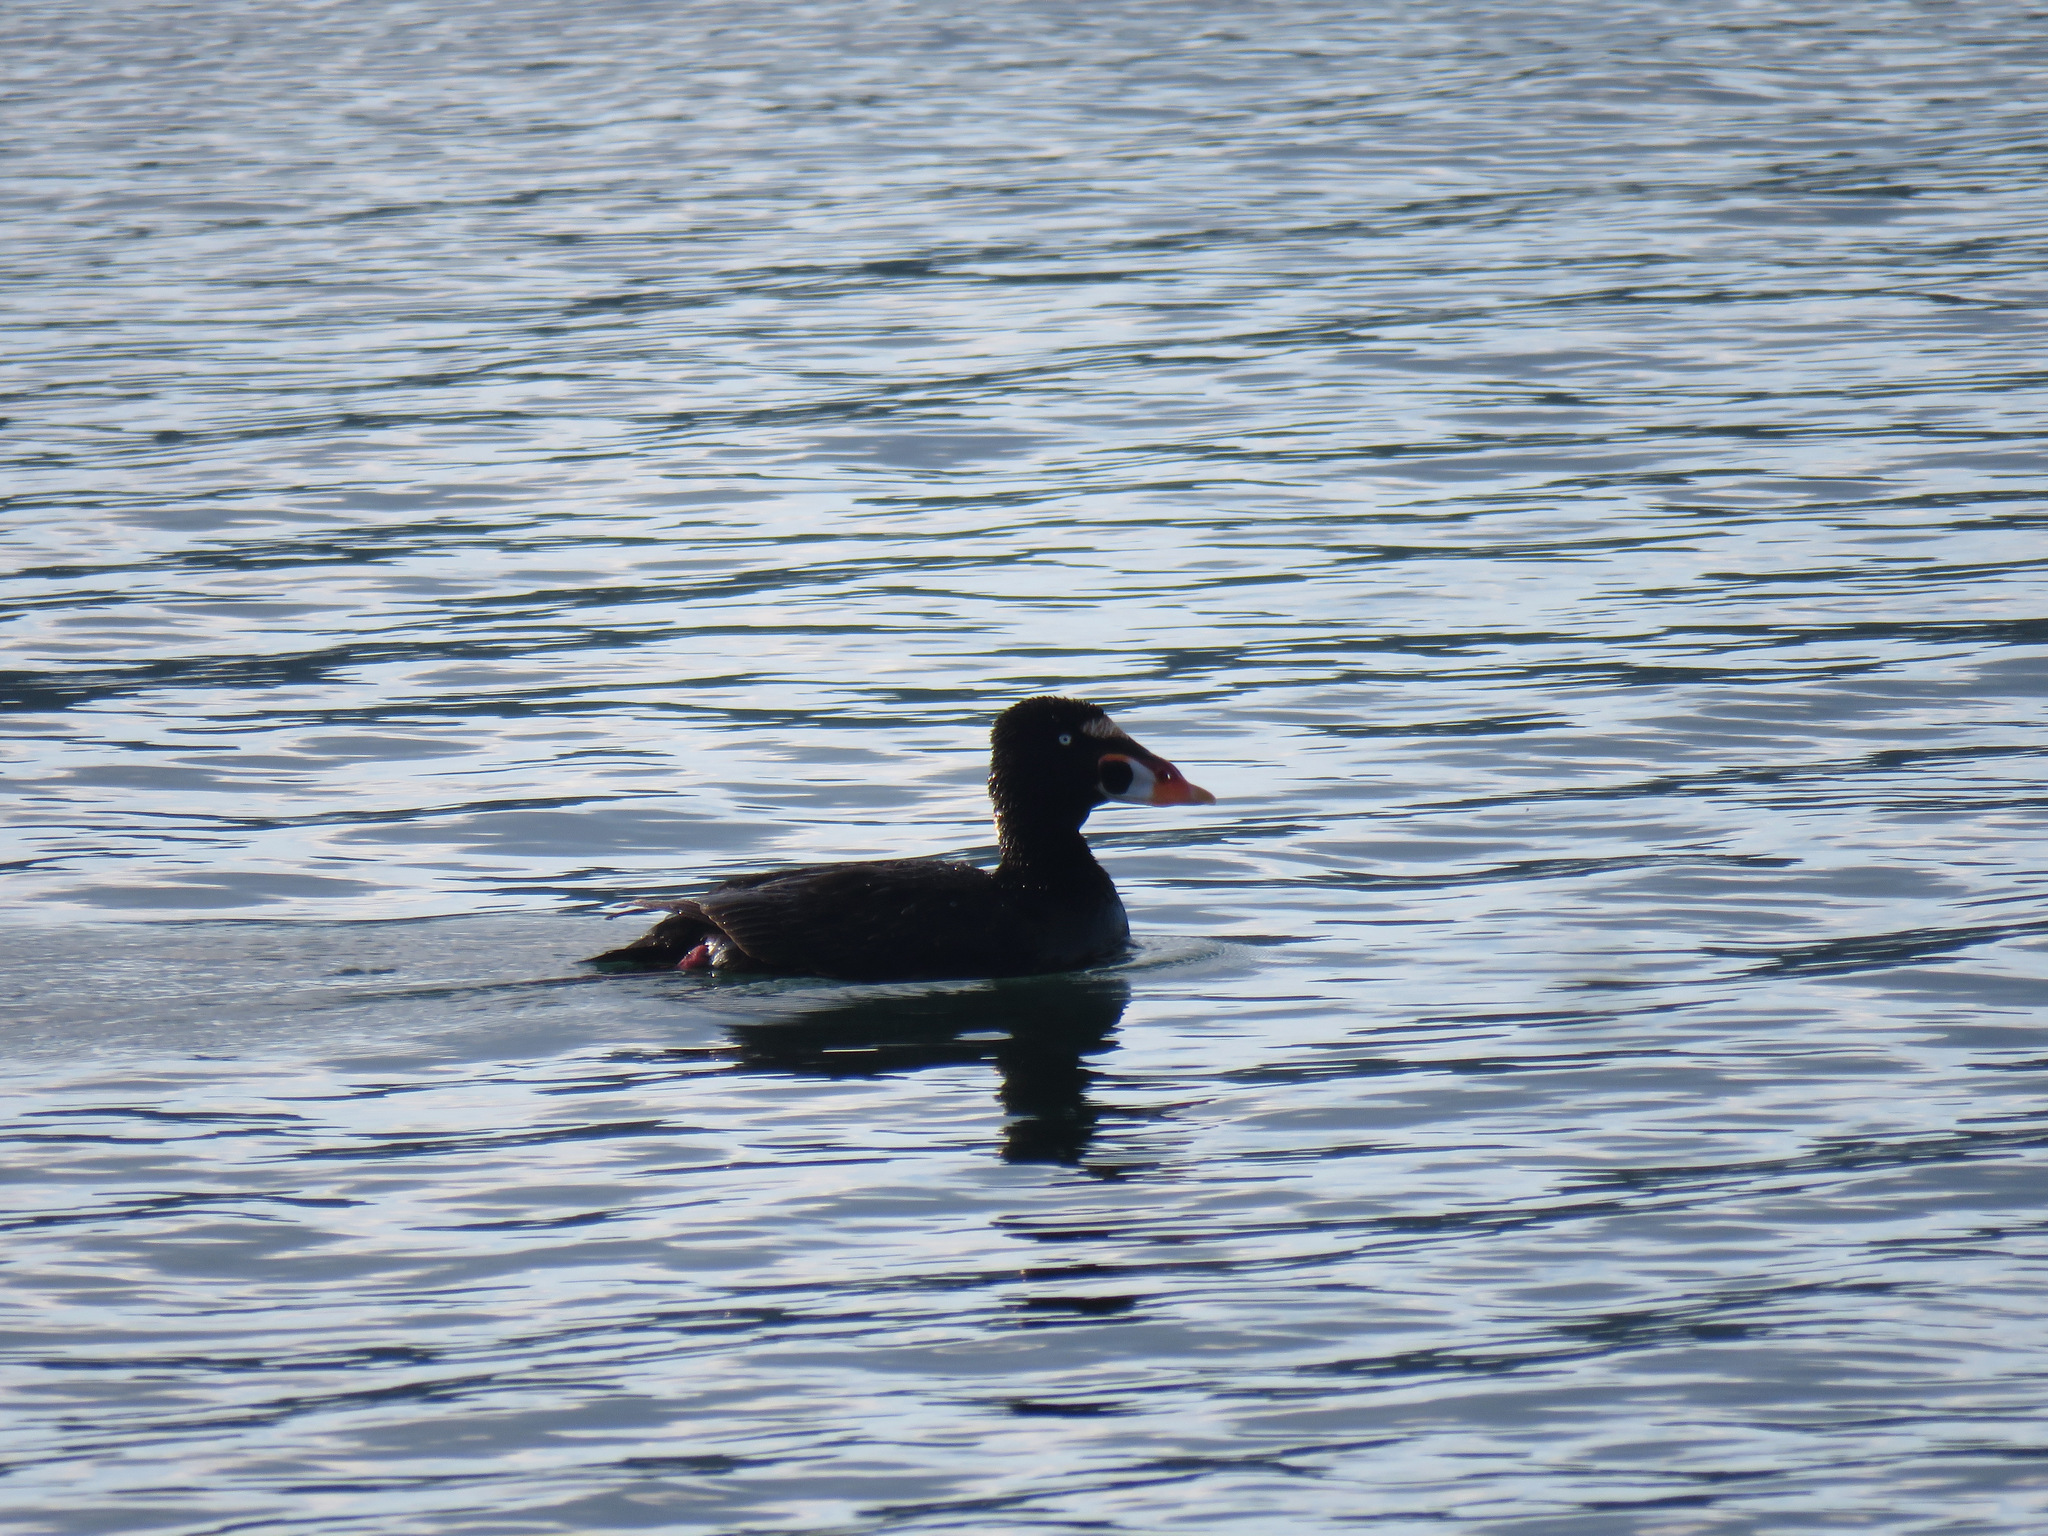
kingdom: Animalia
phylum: Chordata
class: Aves
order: Anseriformes
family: Anatidae
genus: Melanitta
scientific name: Melanitta perspicillata
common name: Surf scoter
